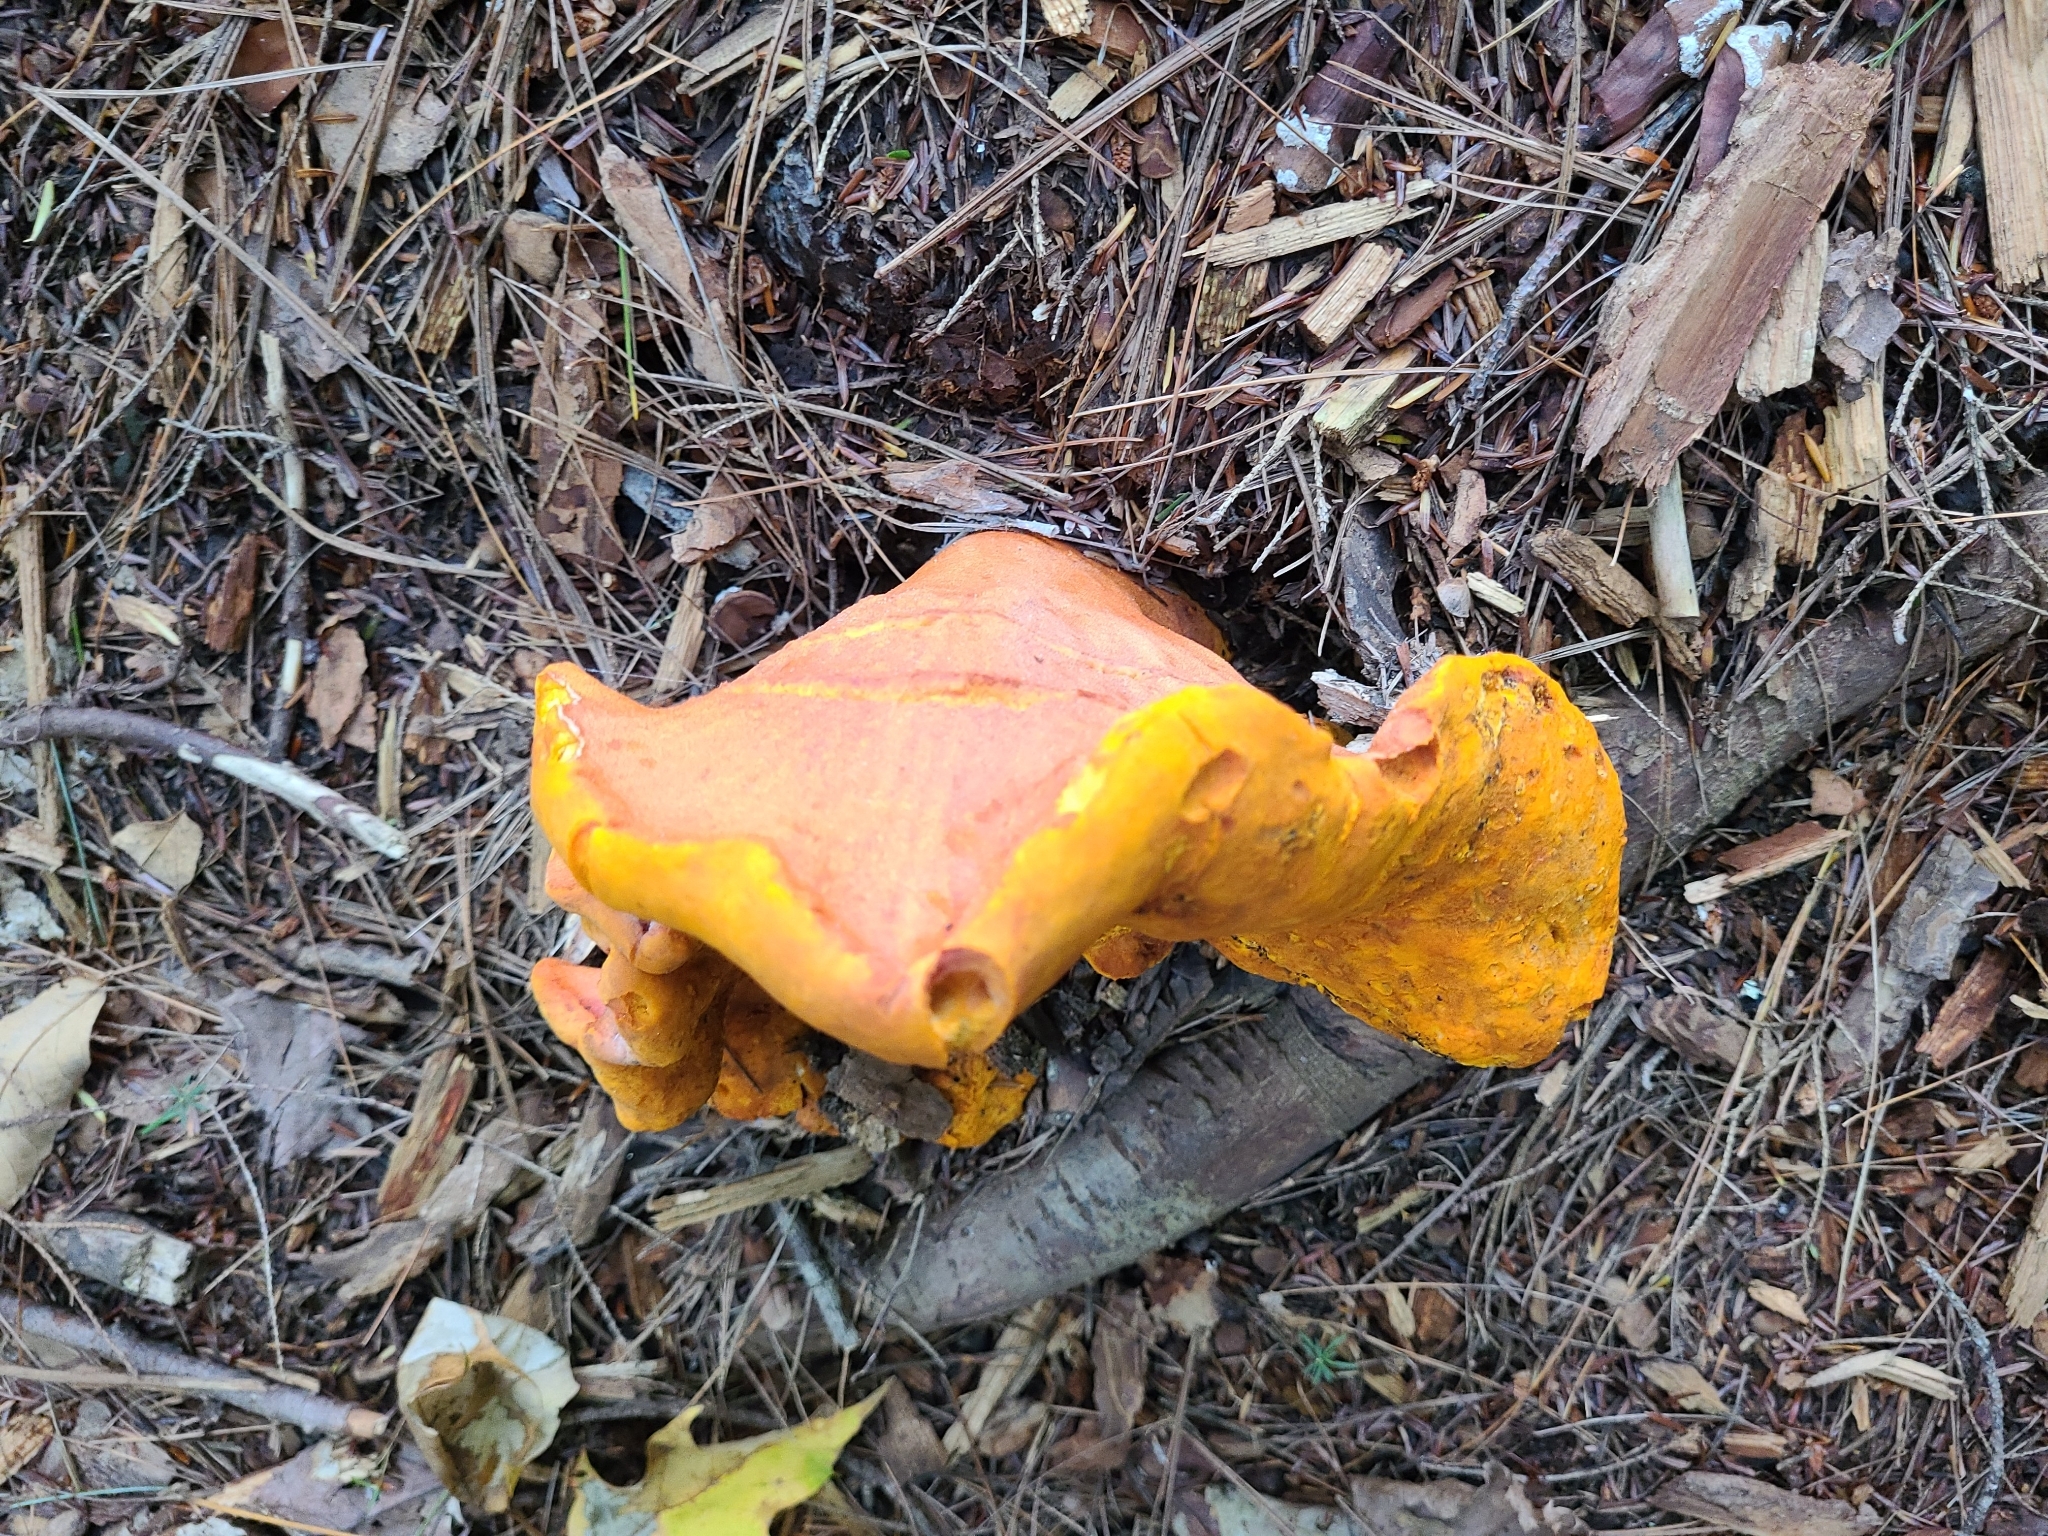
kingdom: Fungi
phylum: Ascomycota
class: Sordariomycetes
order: Hypocreales
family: Hypocreaceae
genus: Hypomyces
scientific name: Hypomyces lactifluorum
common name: Lobster mushroom
